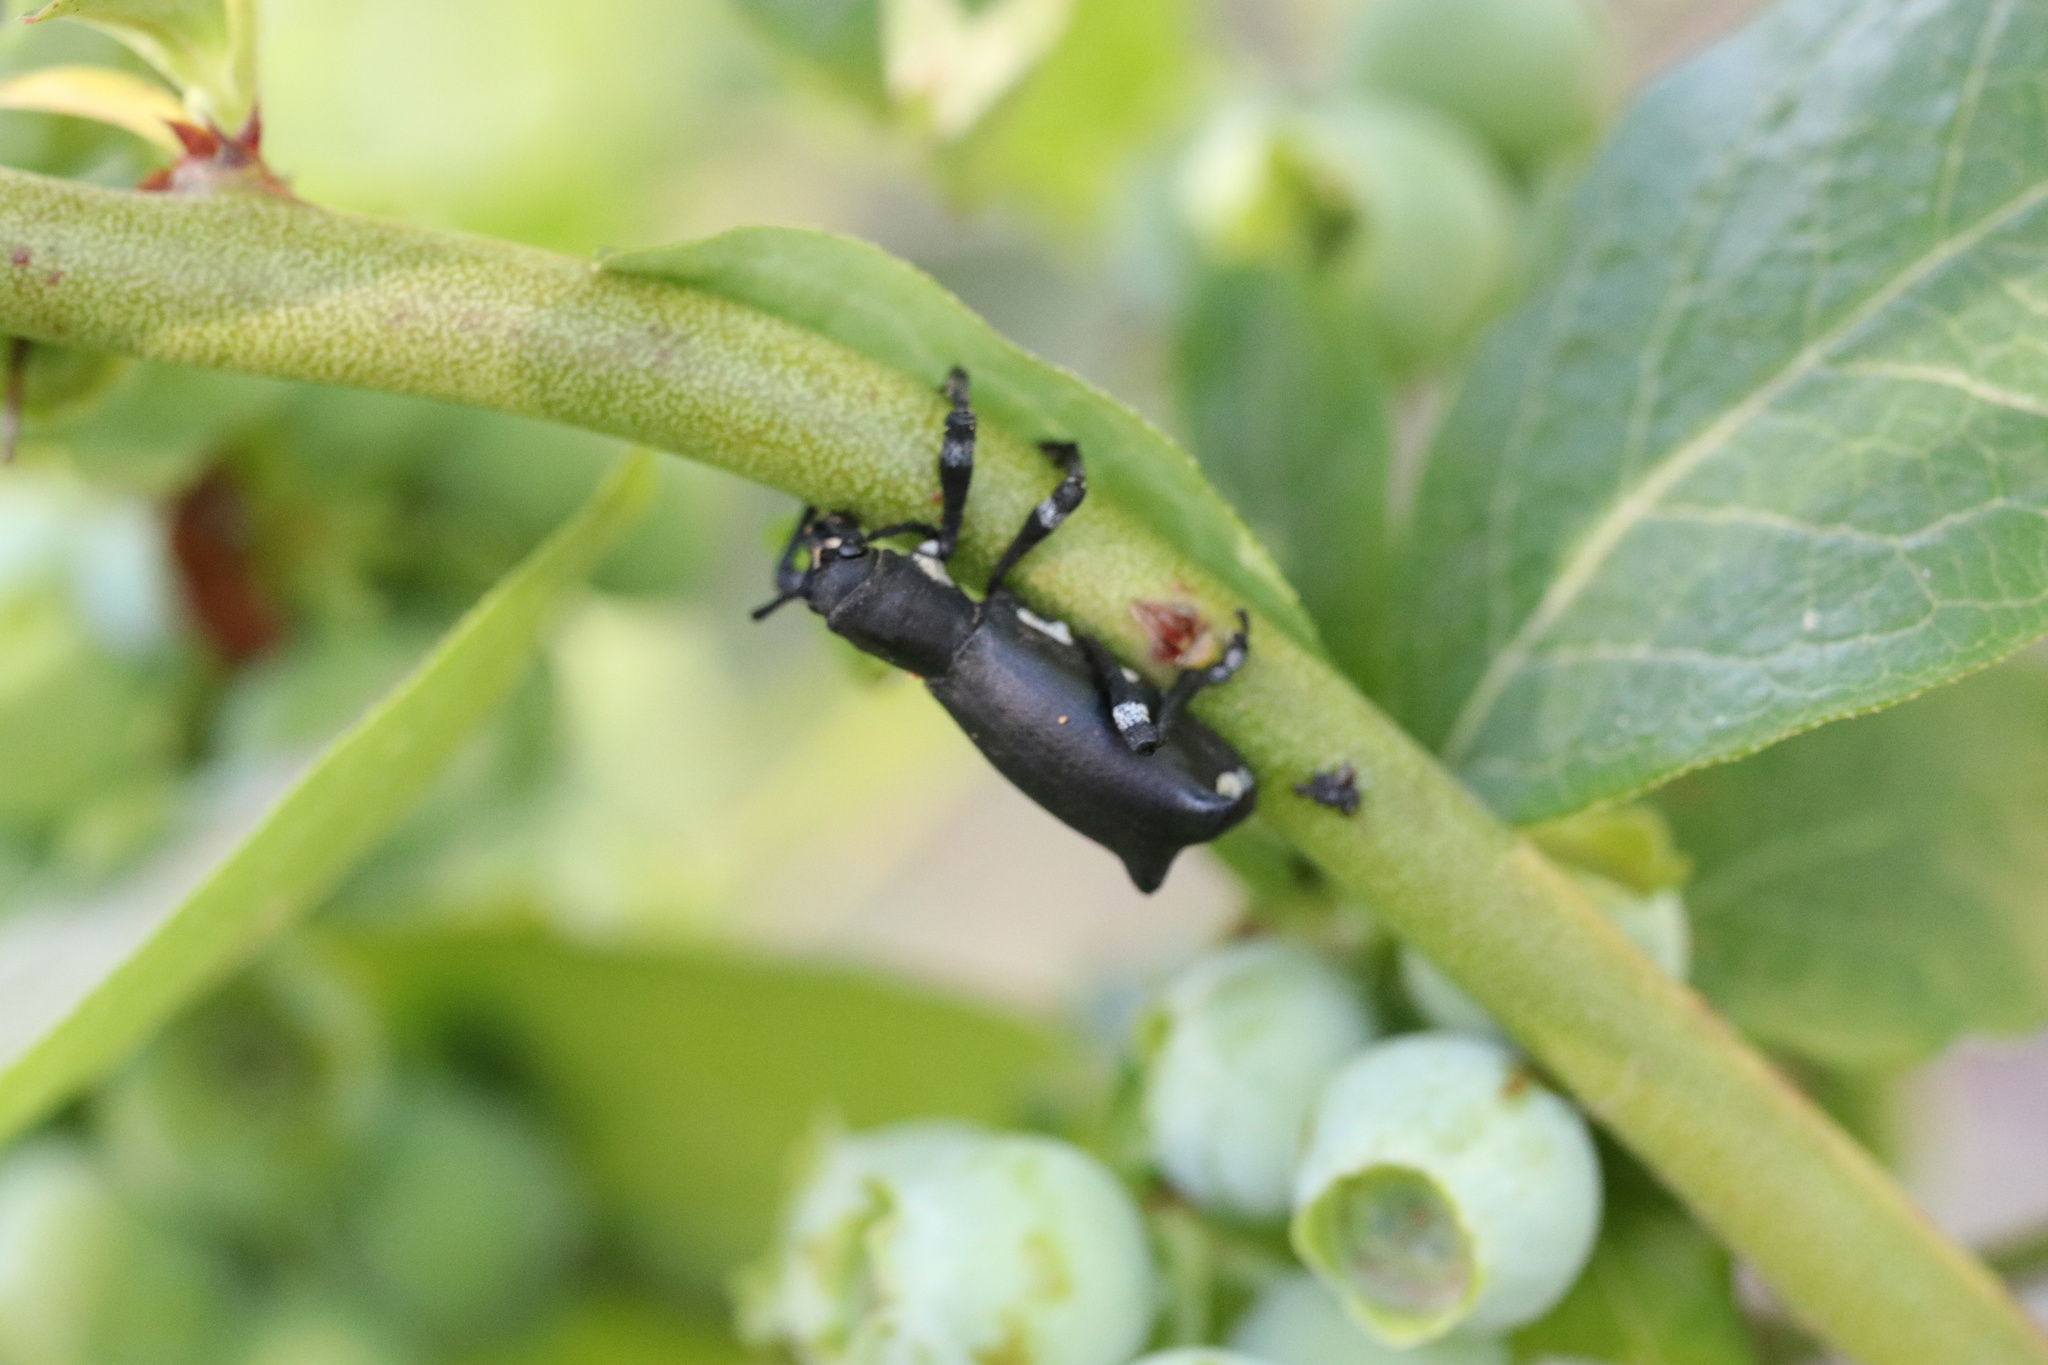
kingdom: Animalia
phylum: Arthropoda
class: Insecta
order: Coleoptera
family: Curculionidae
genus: Aegorhinus
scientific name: Aegorhinus
